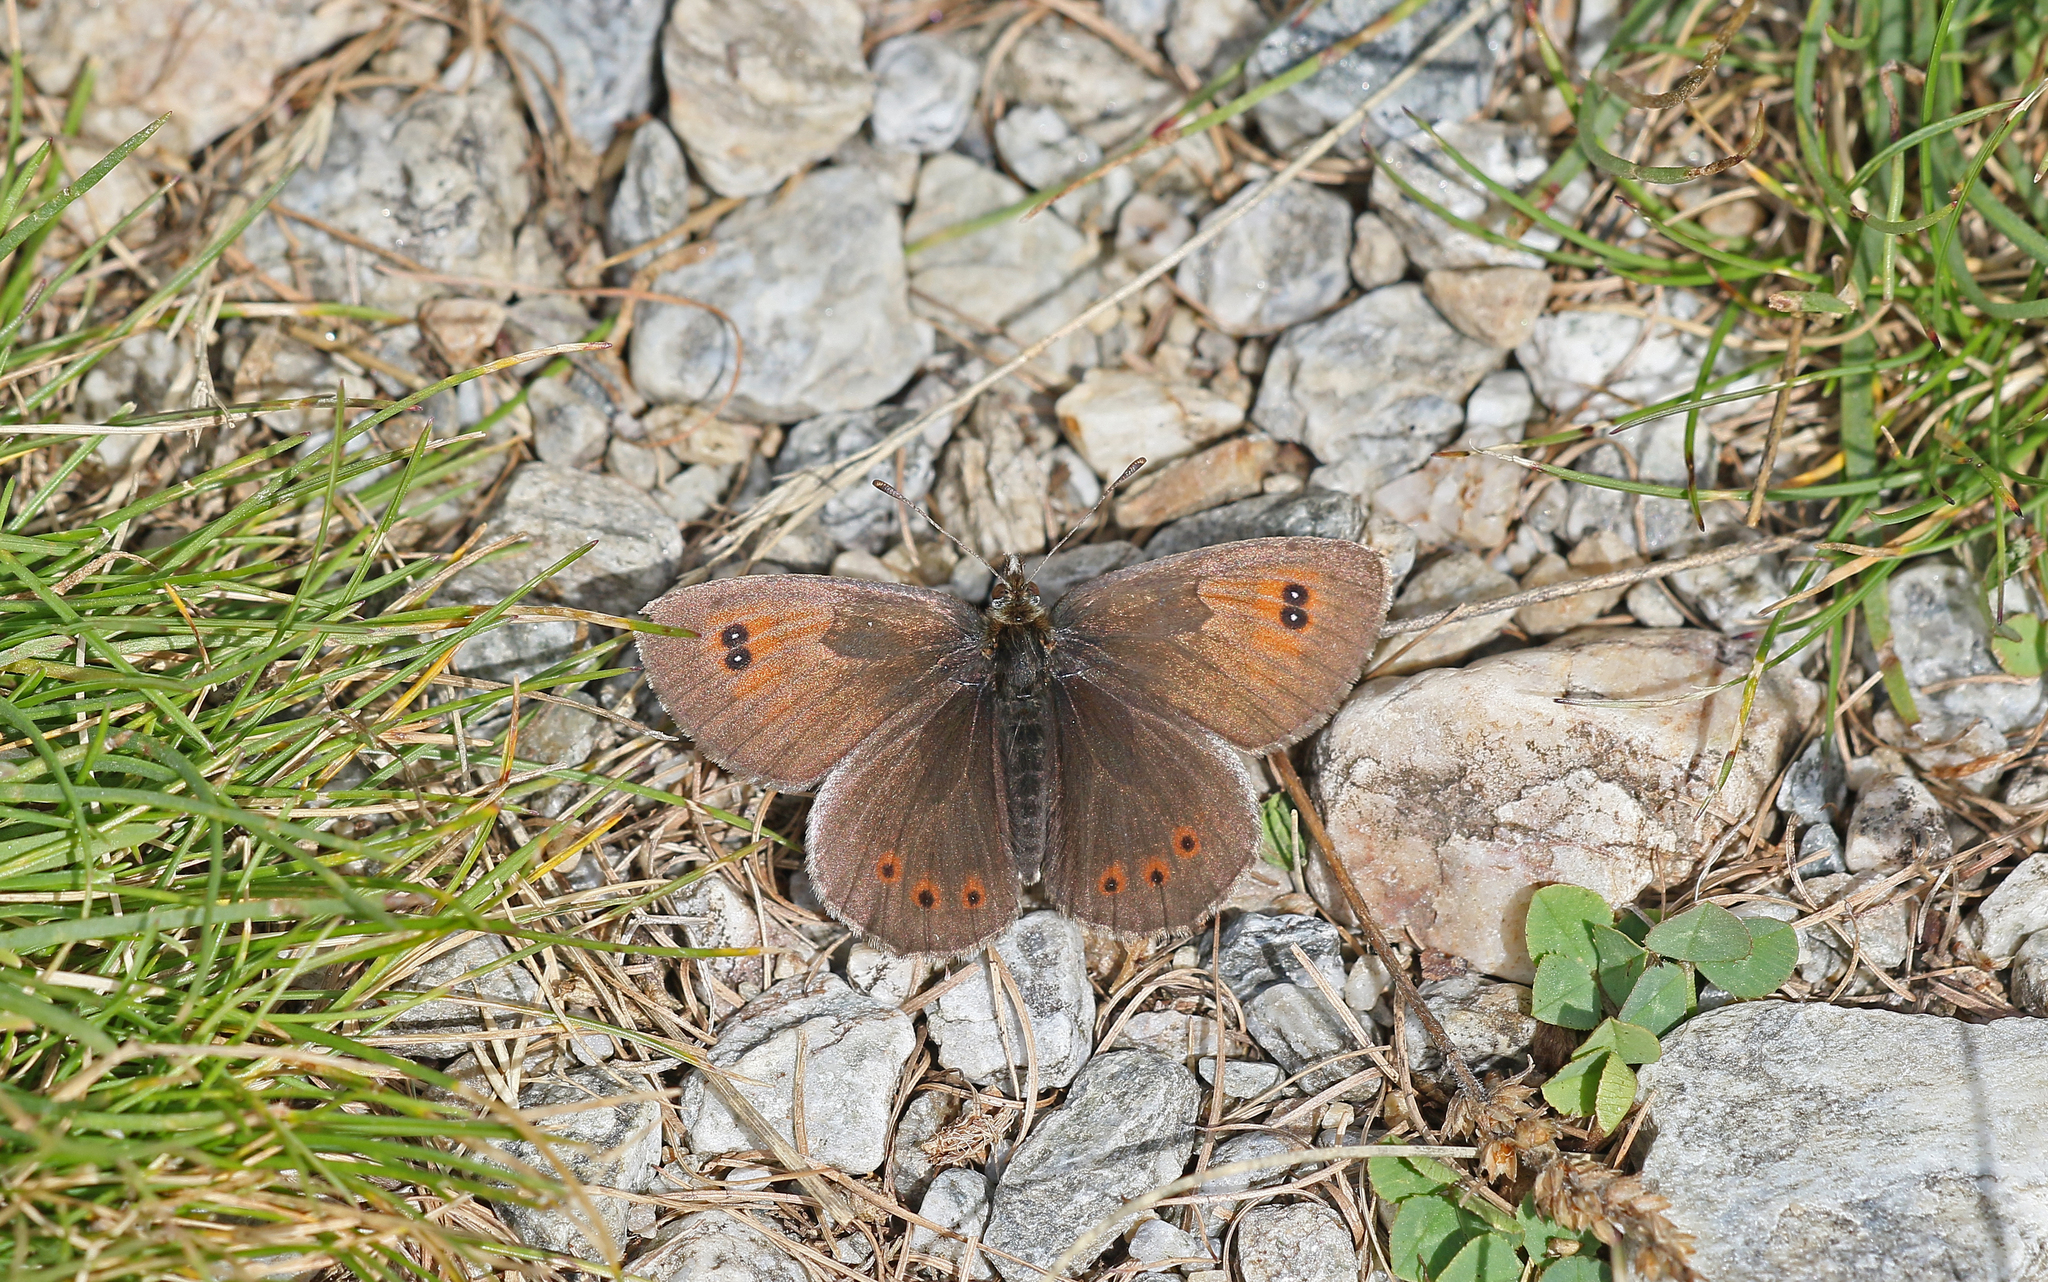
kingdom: Animalia
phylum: Arthropoda
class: Insecta
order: Lepidoptera
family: Nymphalidae
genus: Erebia
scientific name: Erebia cassioides
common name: Common brassy ringlet
